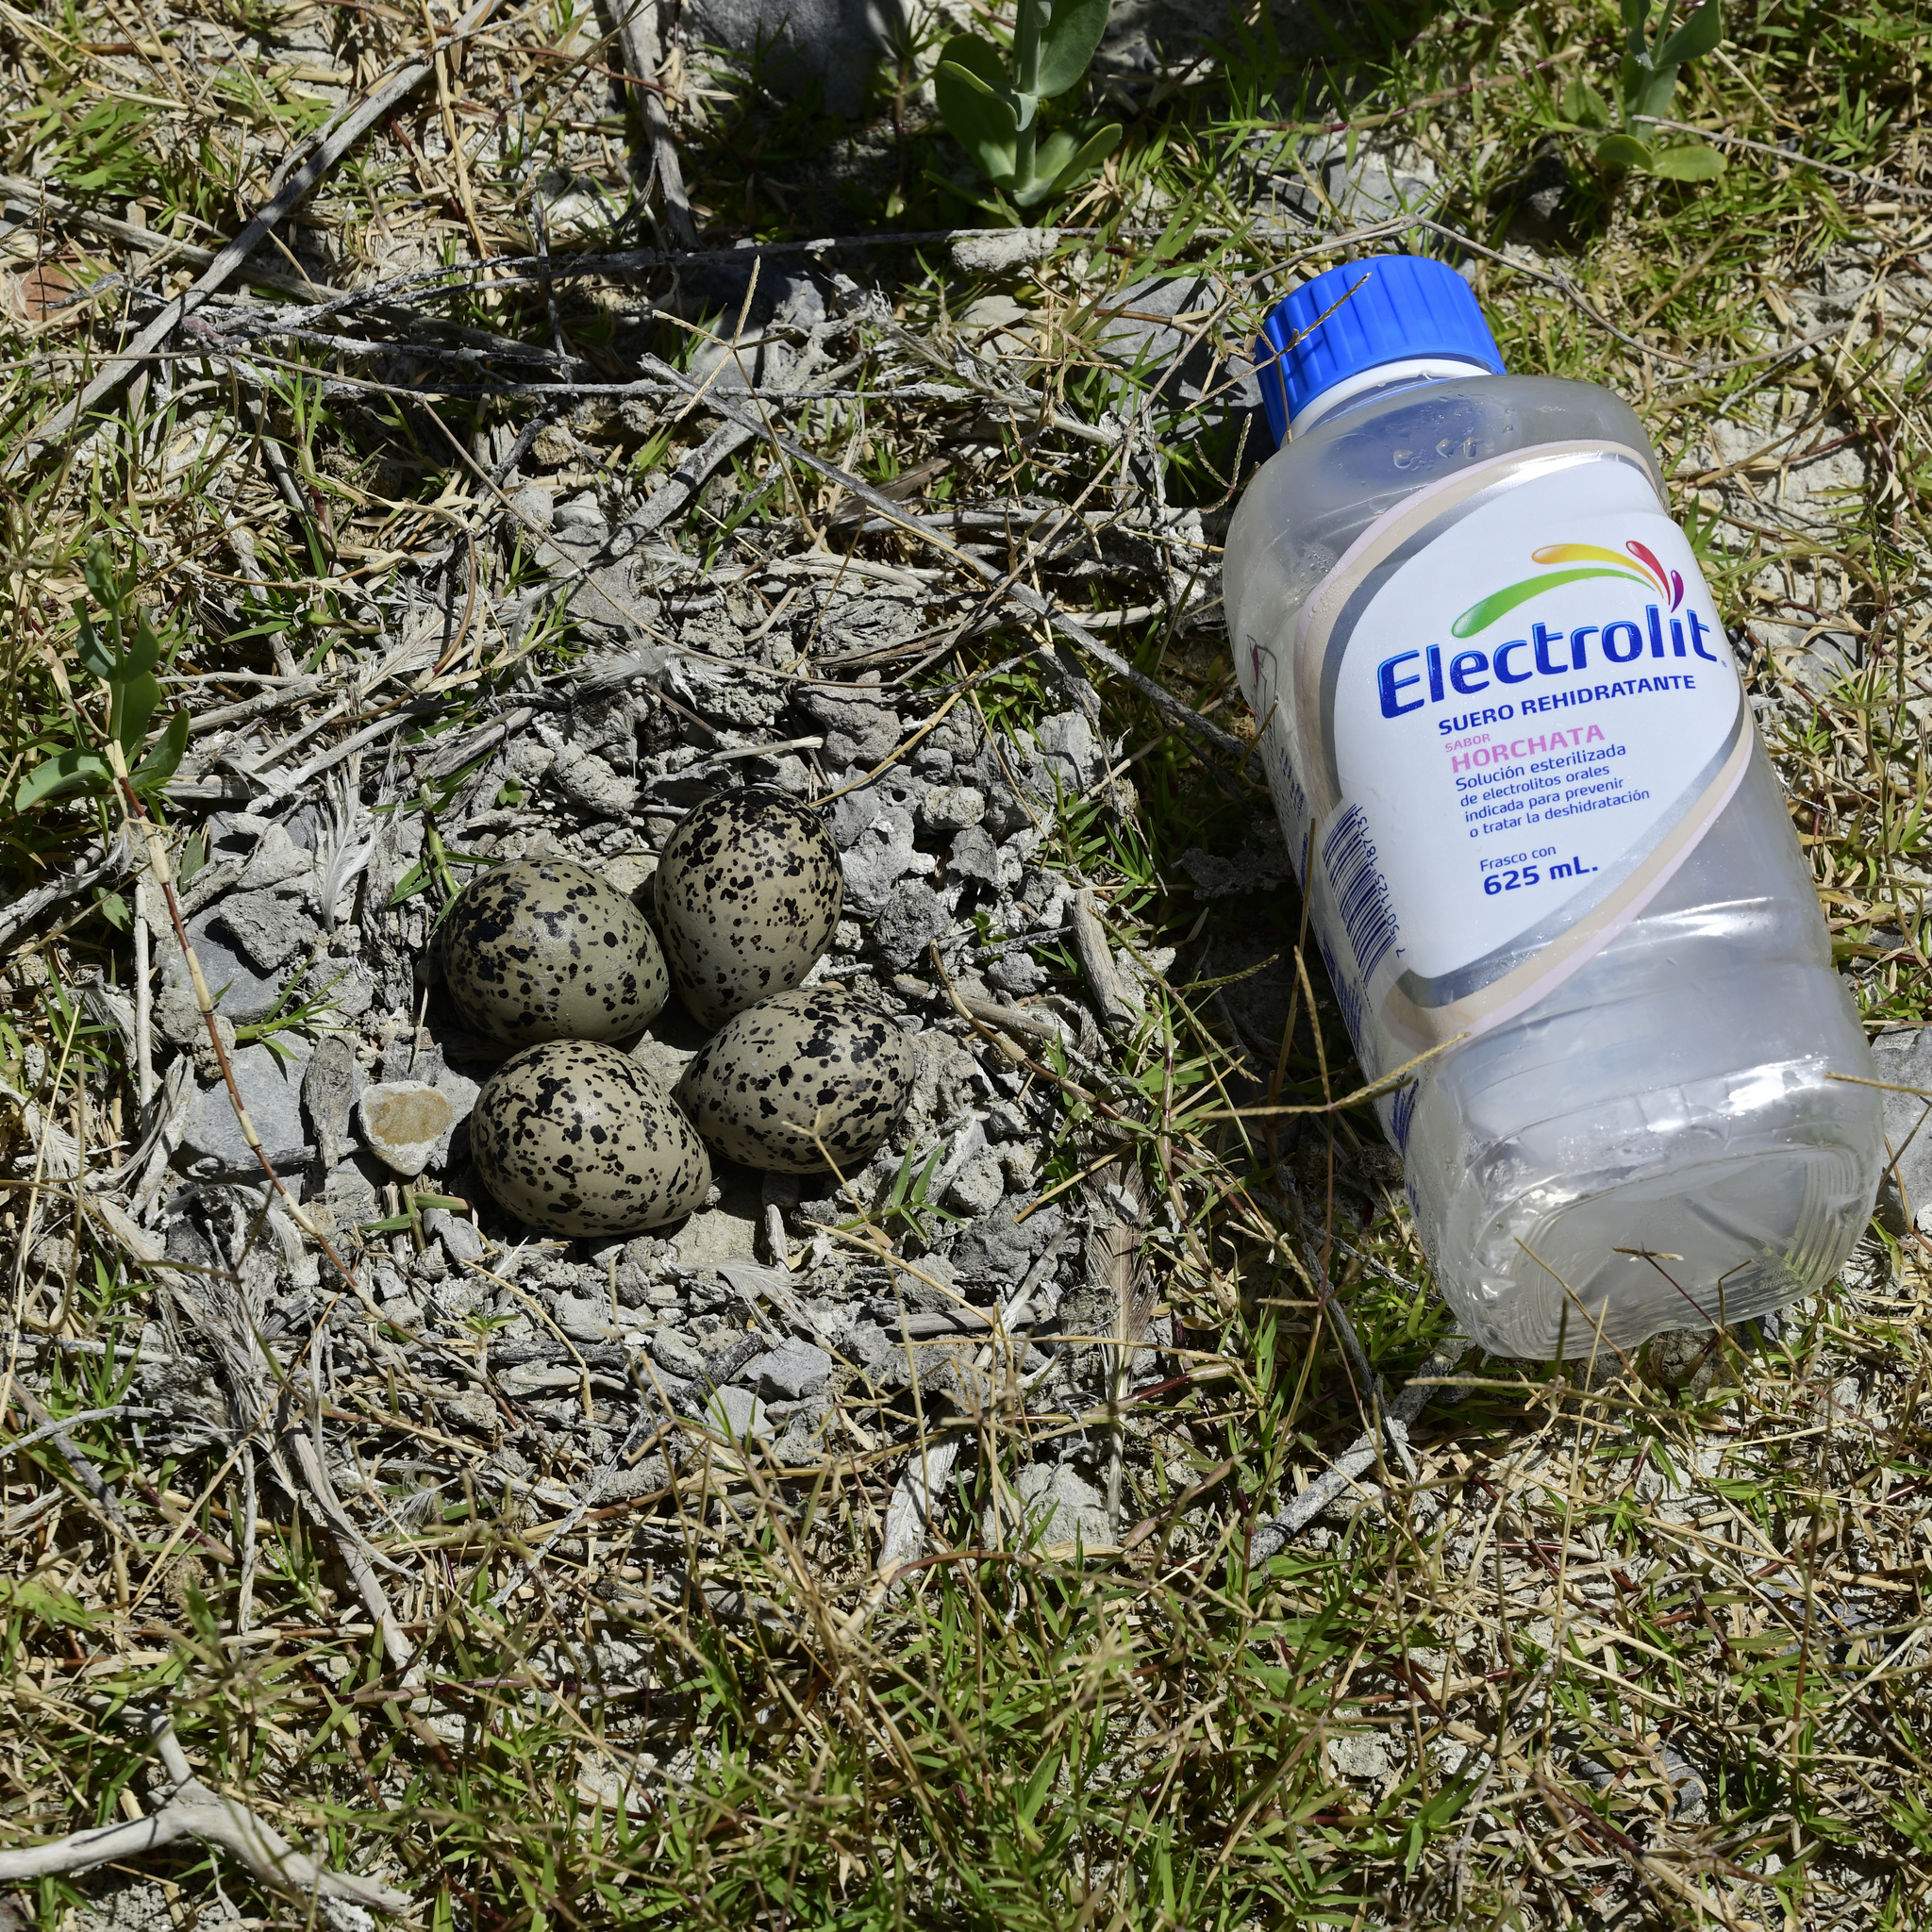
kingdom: Animalia
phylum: Chordata
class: Aves
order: Charadriiformes
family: Recurvirostridae
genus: Himantopus
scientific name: Himantopus mexicanus
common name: Black-necked stilt
